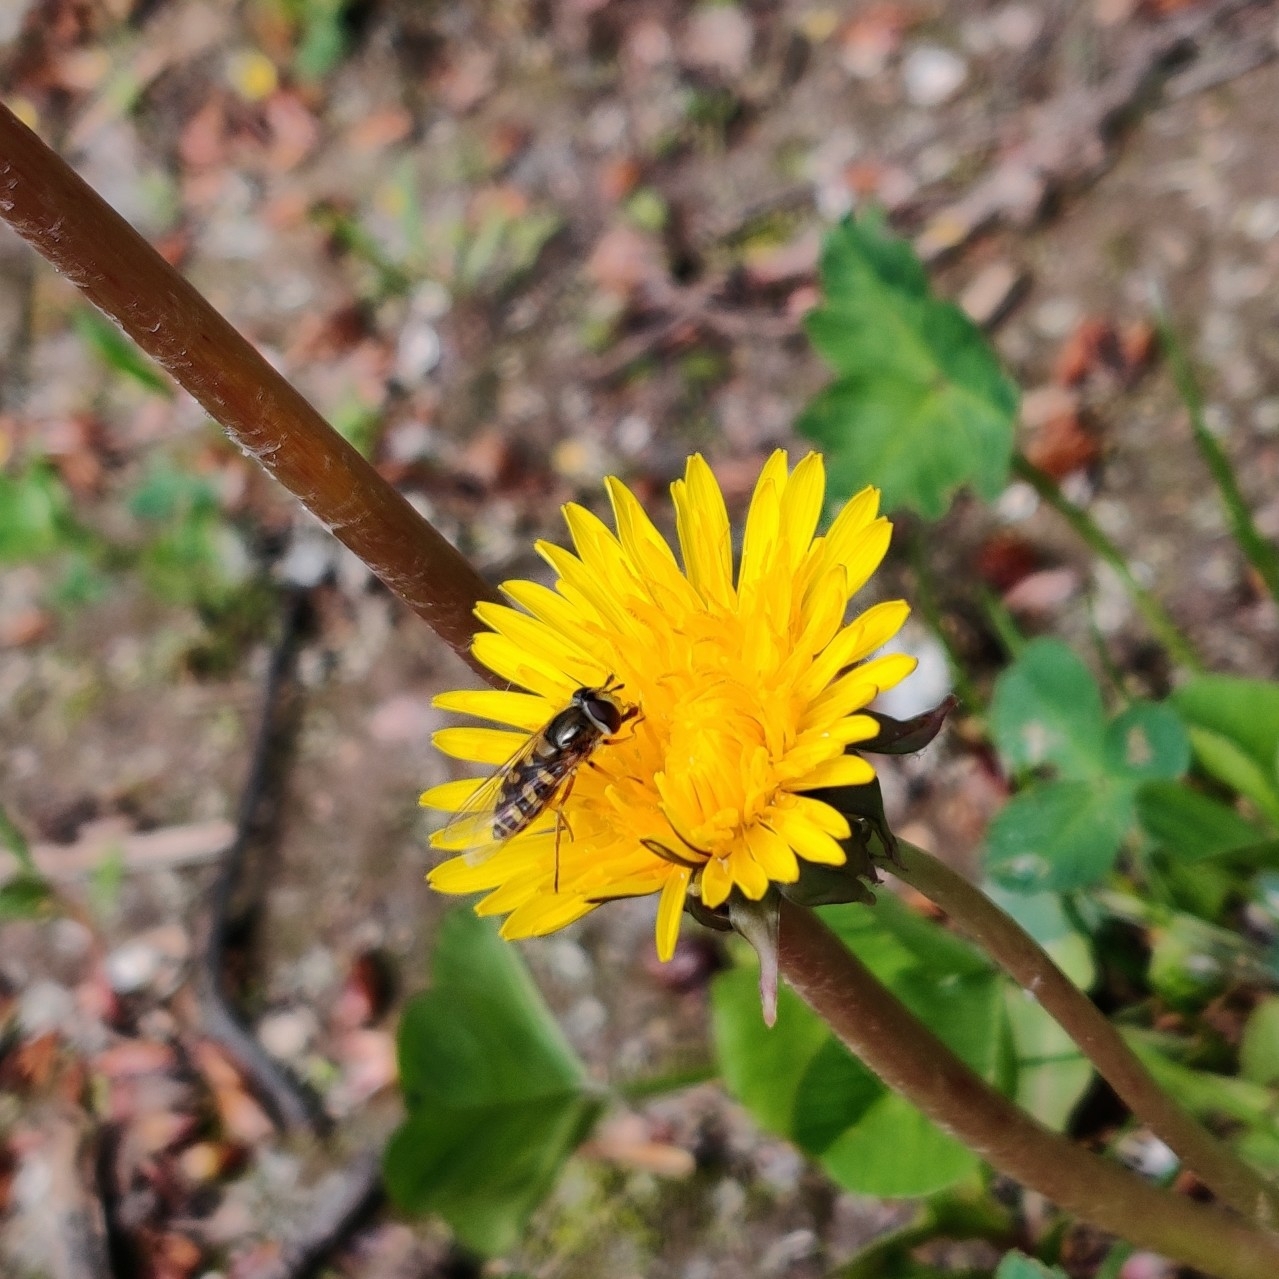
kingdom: Animalia
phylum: Arthropoda
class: Insecta
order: Diptera
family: Syrphidae
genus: Eupeodes
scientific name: Eupeodes corollae
